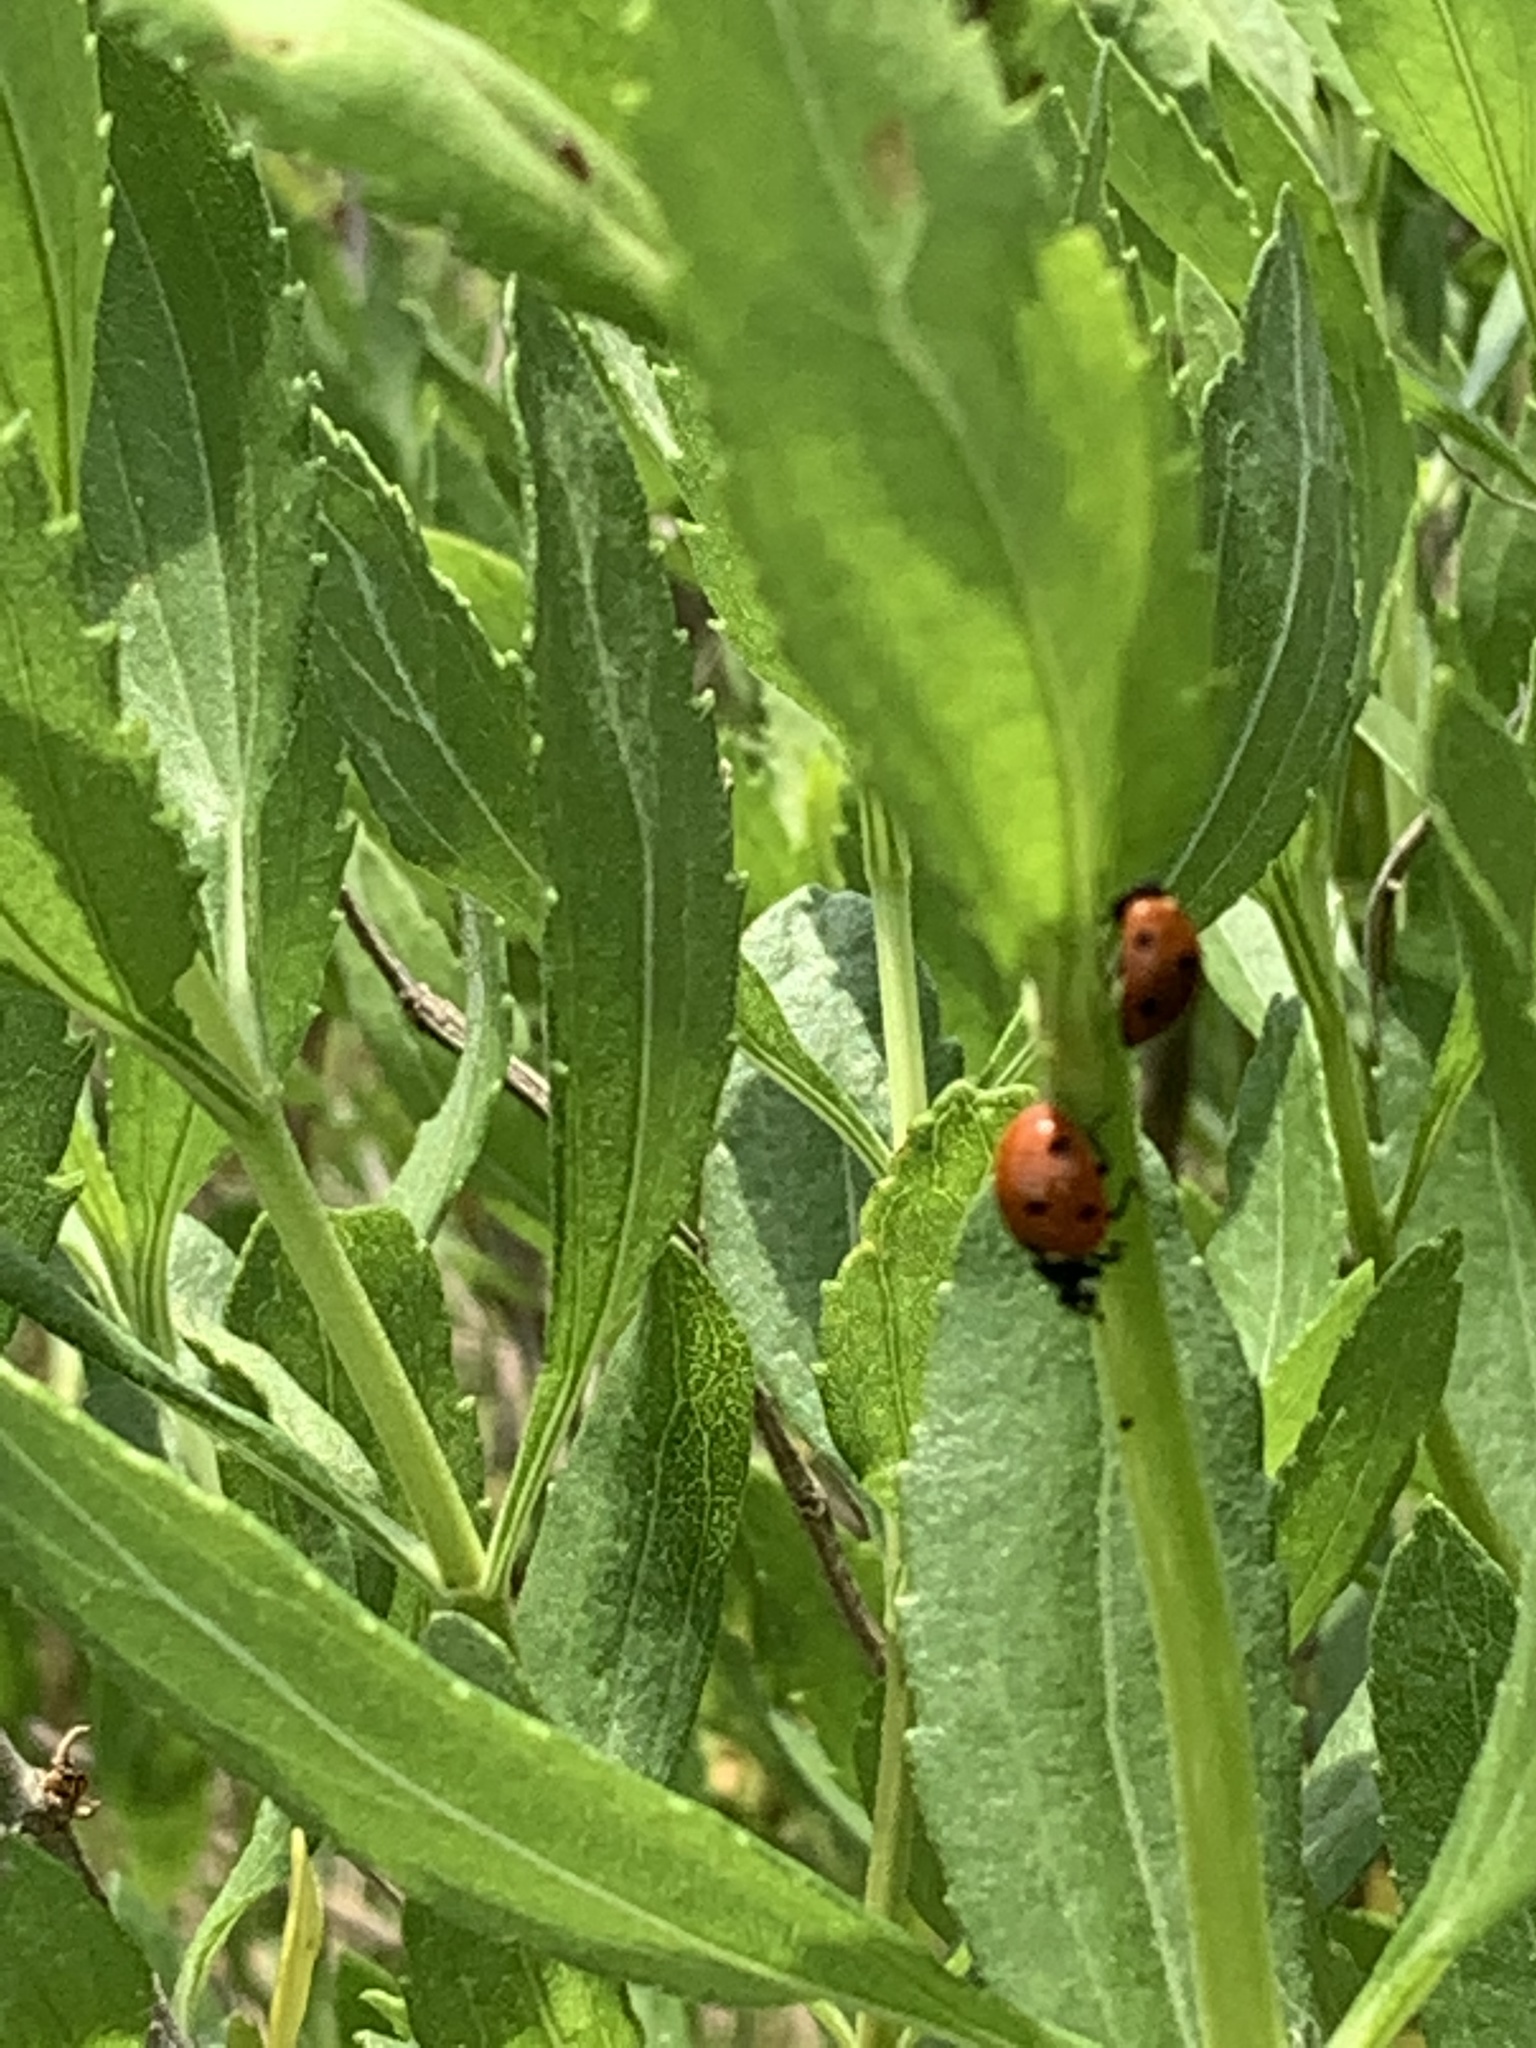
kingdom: Animalia
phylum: Arthropoda
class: Insecta
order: Coleoptera
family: Coccinellidae
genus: Coccinella
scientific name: Coccinella septempunctata
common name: Sevenspotted lady beetle
